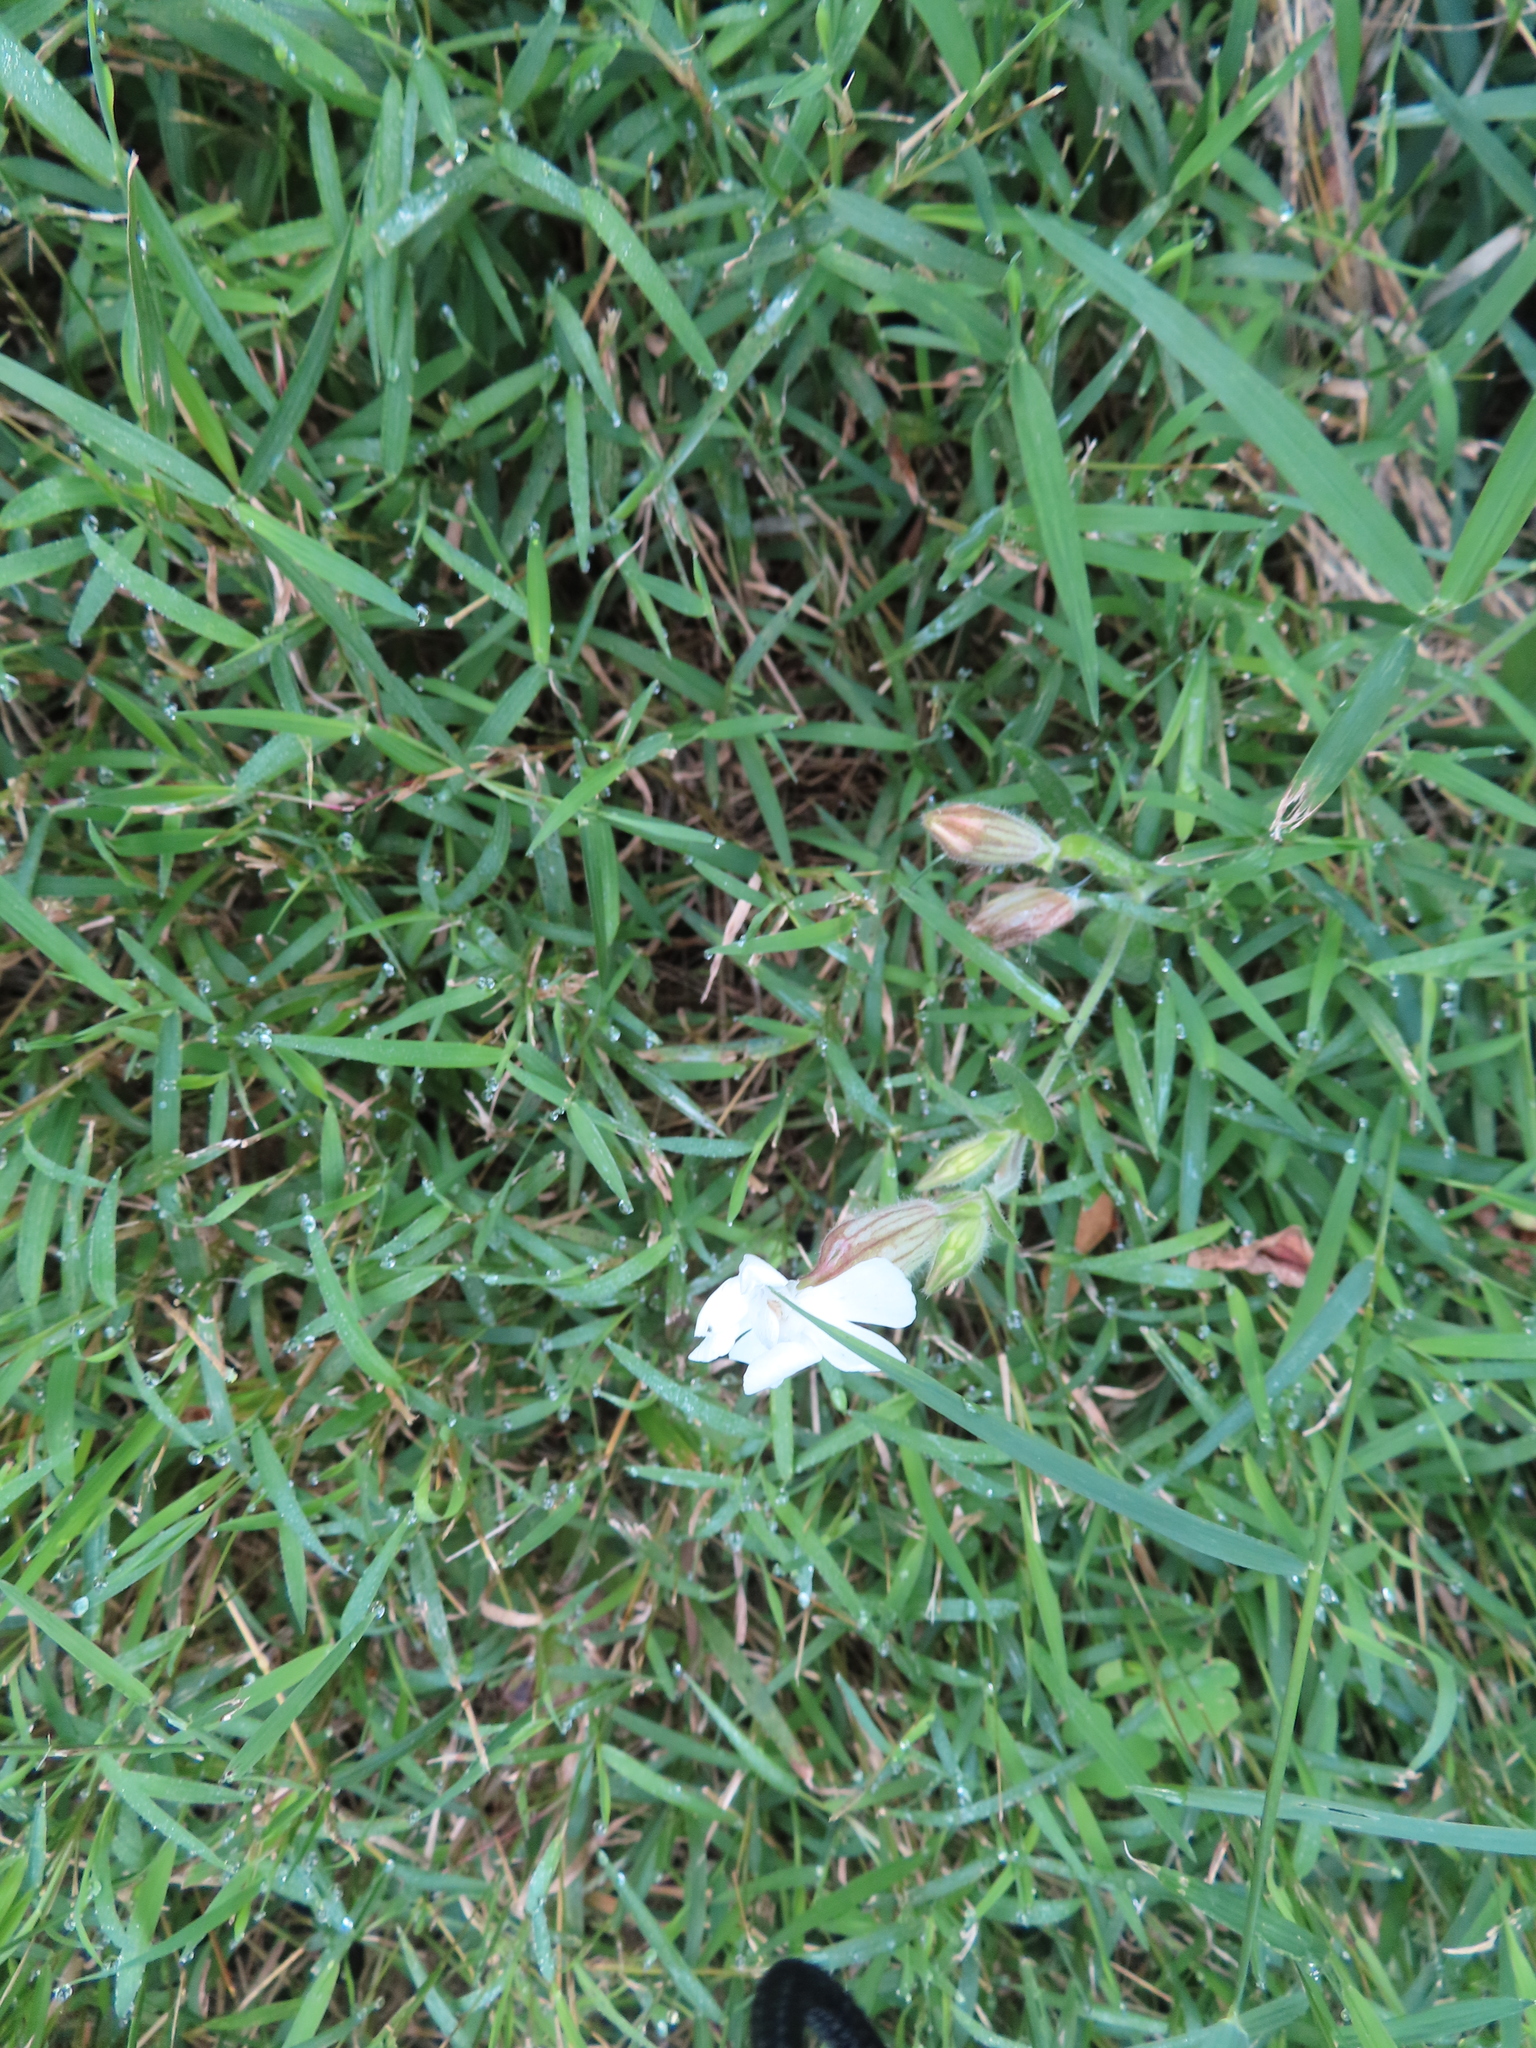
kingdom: Plantae
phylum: Tracheophyta
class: Magnoliopsida
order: Caryophyllales
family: Caryophyllaceae
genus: Silene
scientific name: Silene latifolia
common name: White campion
